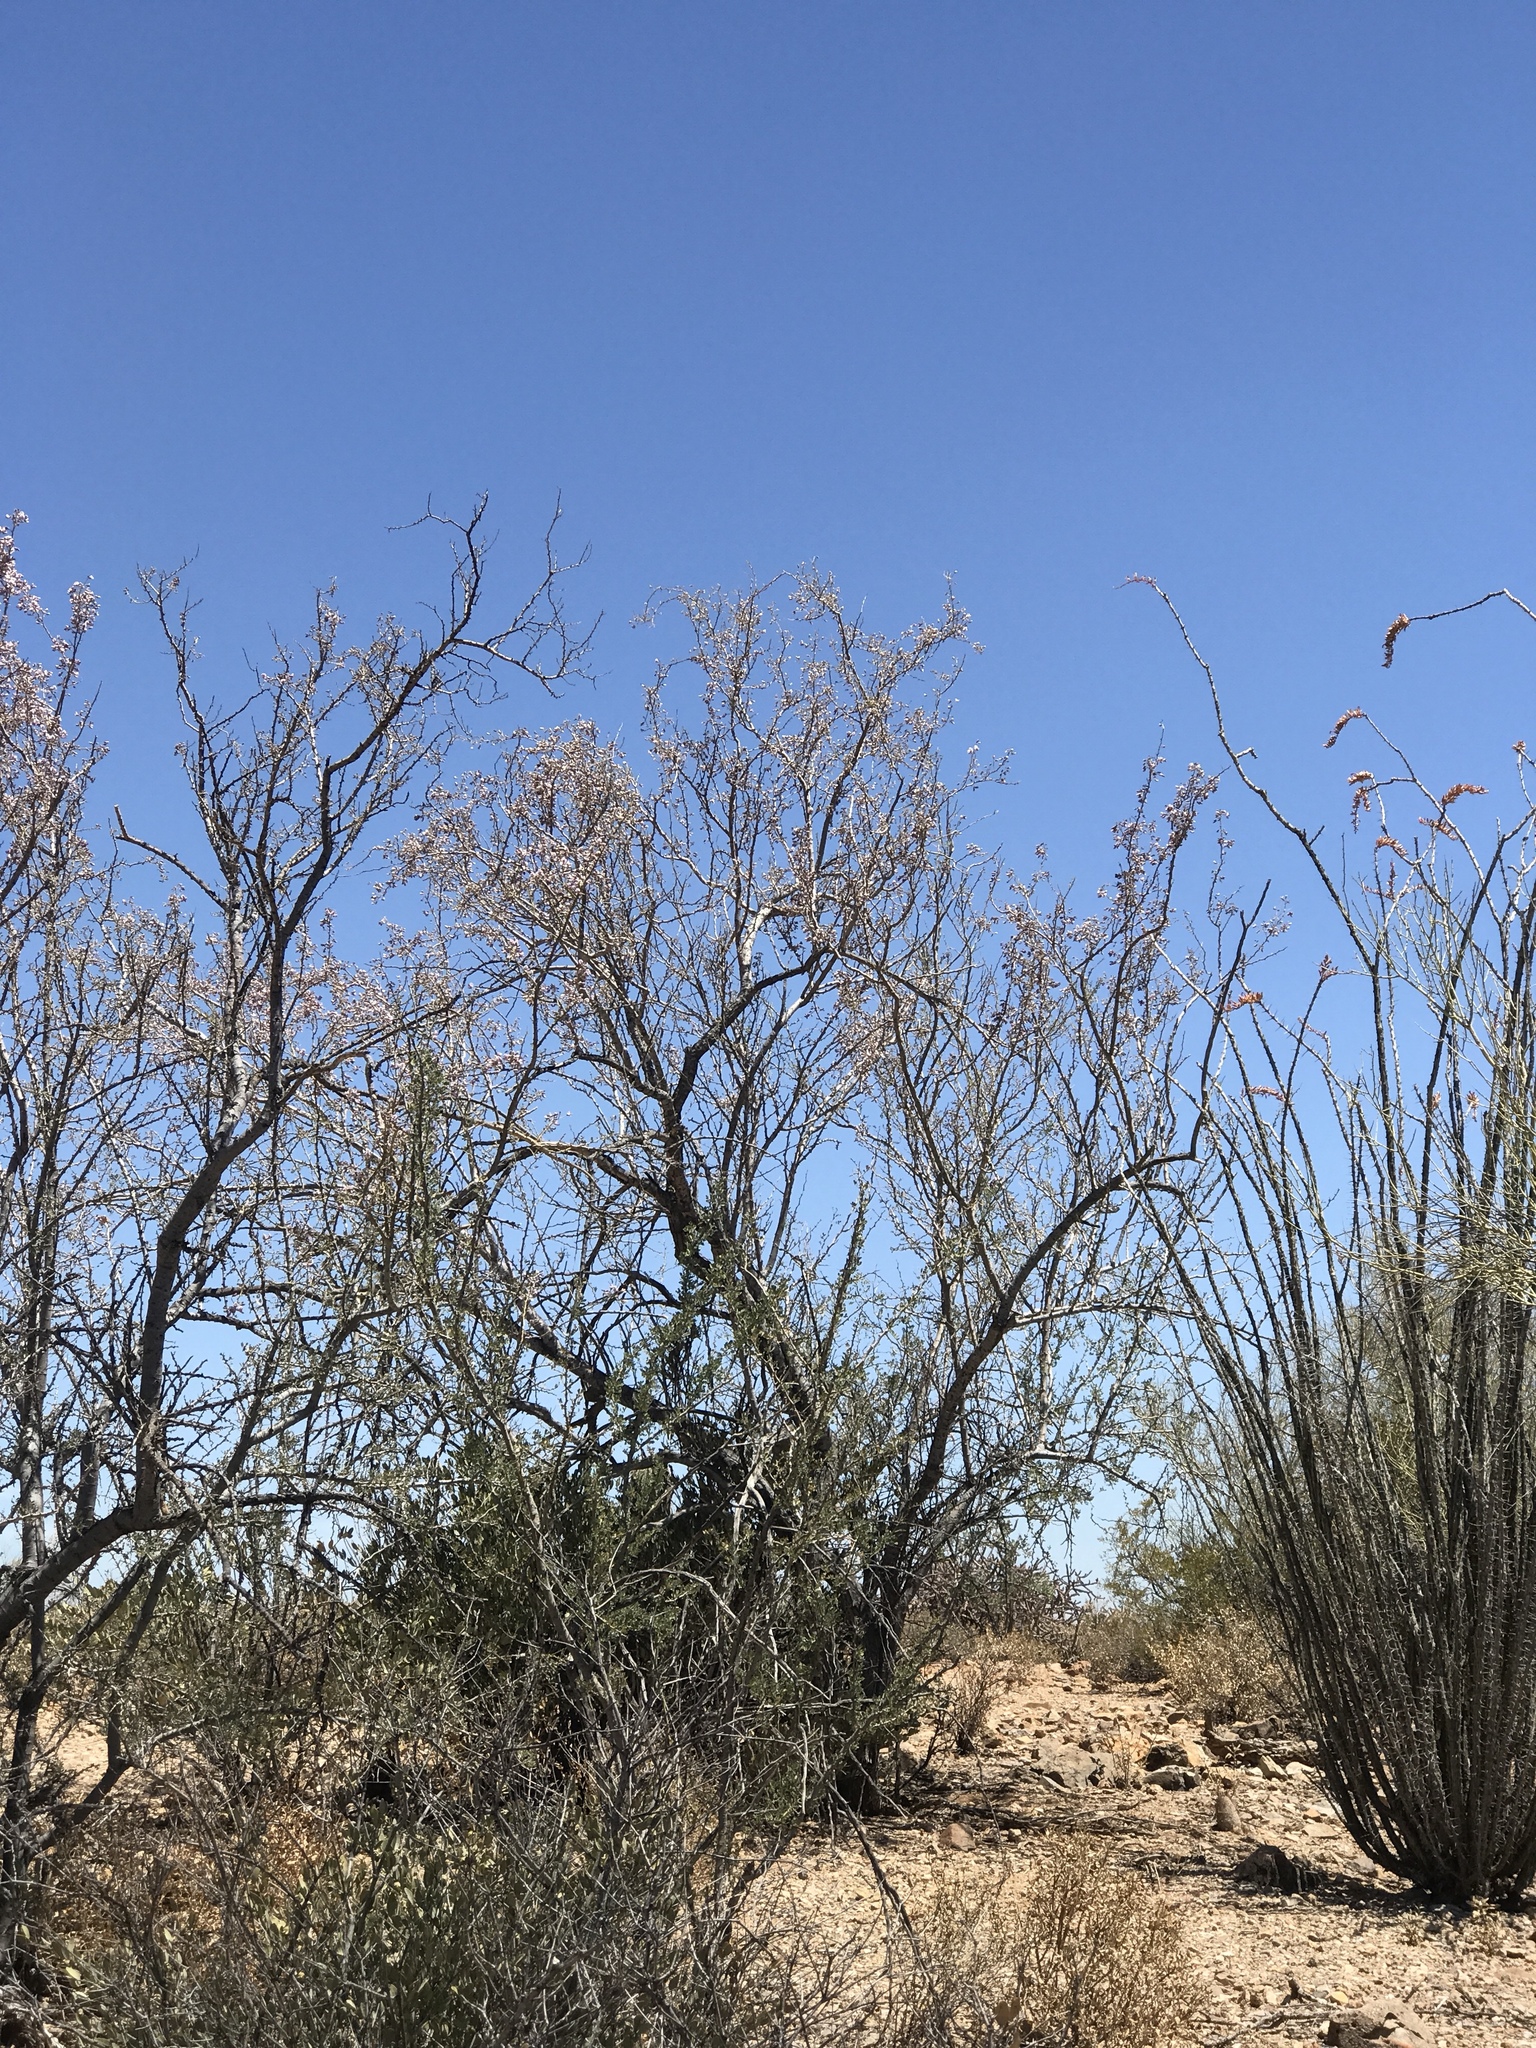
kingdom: Plantae
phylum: Tracheophyta
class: Magnoliopsida
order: Fabales
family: Fabaceae
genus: Olneya
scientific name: Olneya tesota
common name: Desert ironwood
